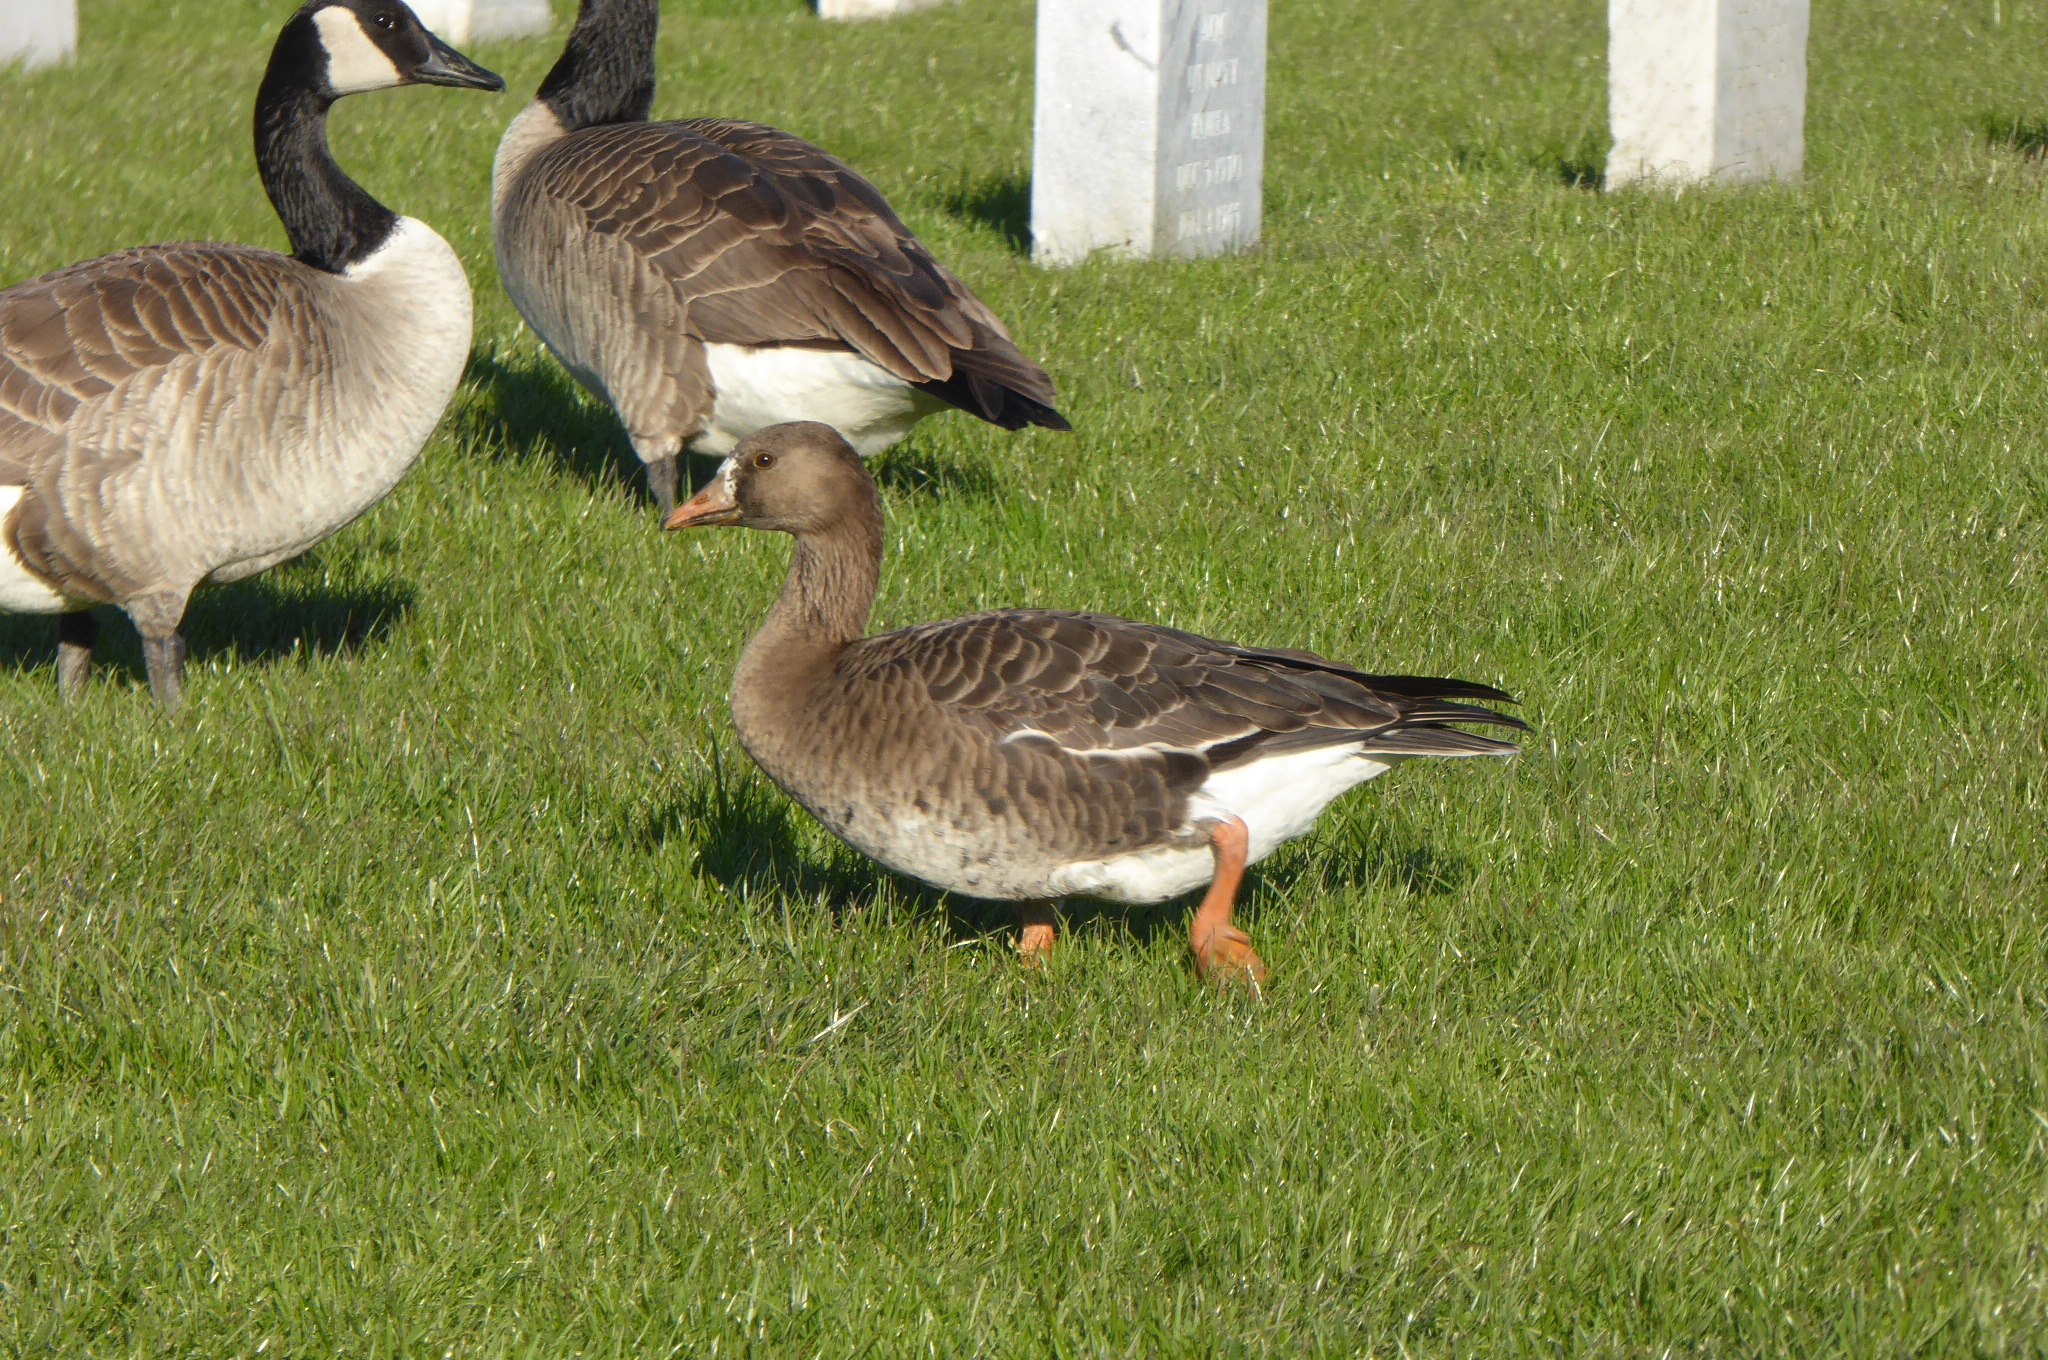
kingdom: Animalia
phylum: Chordata
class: Aves
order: Anseriformes
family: Anatidae
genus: Anser
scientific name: Anser albifrons
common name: Greater white-fronted goose
